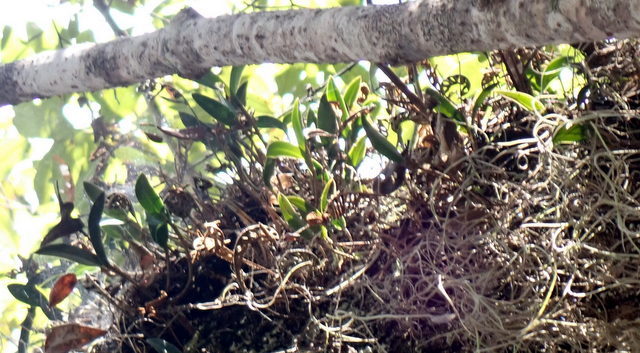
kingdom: Plantae
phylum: Tracheophyta
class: Liliopsida
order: Asparagales
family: Orchidaceae
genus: Epidendrum
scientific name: Epidendrum conopseum
